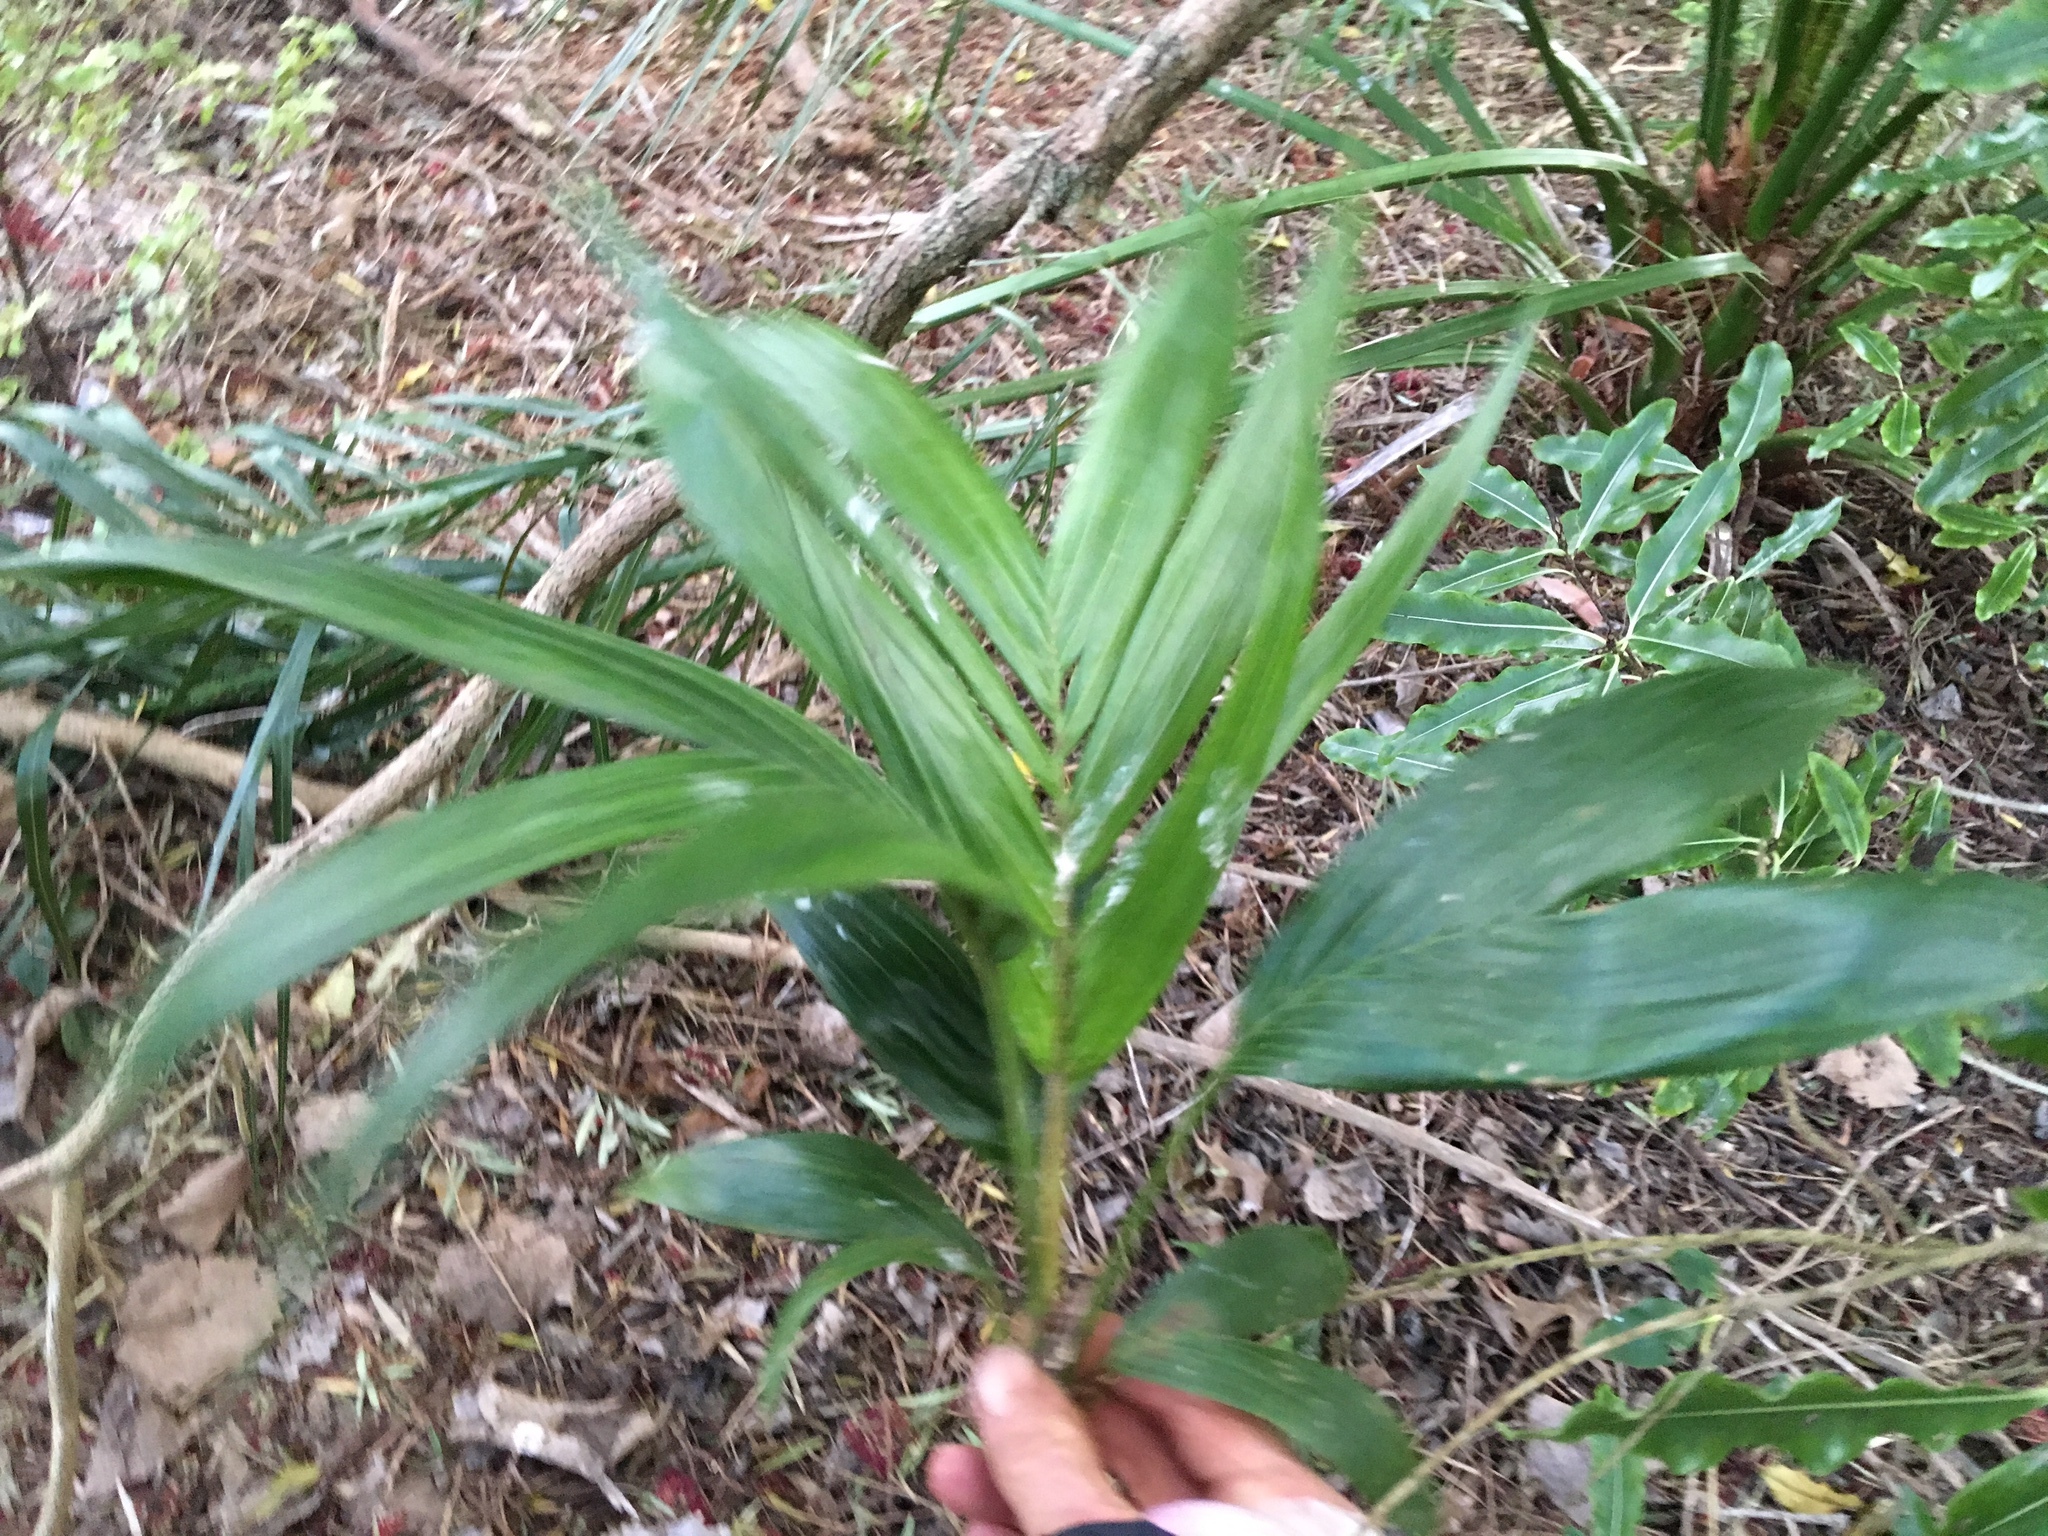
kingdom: Plantae
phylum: Tracheophyta
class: Liliopsida
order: Arecales
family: Arecaceae
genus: Archontophoenix
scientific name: Archontophoenix cunninghamiana
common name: Piccabeen bangalow palm
